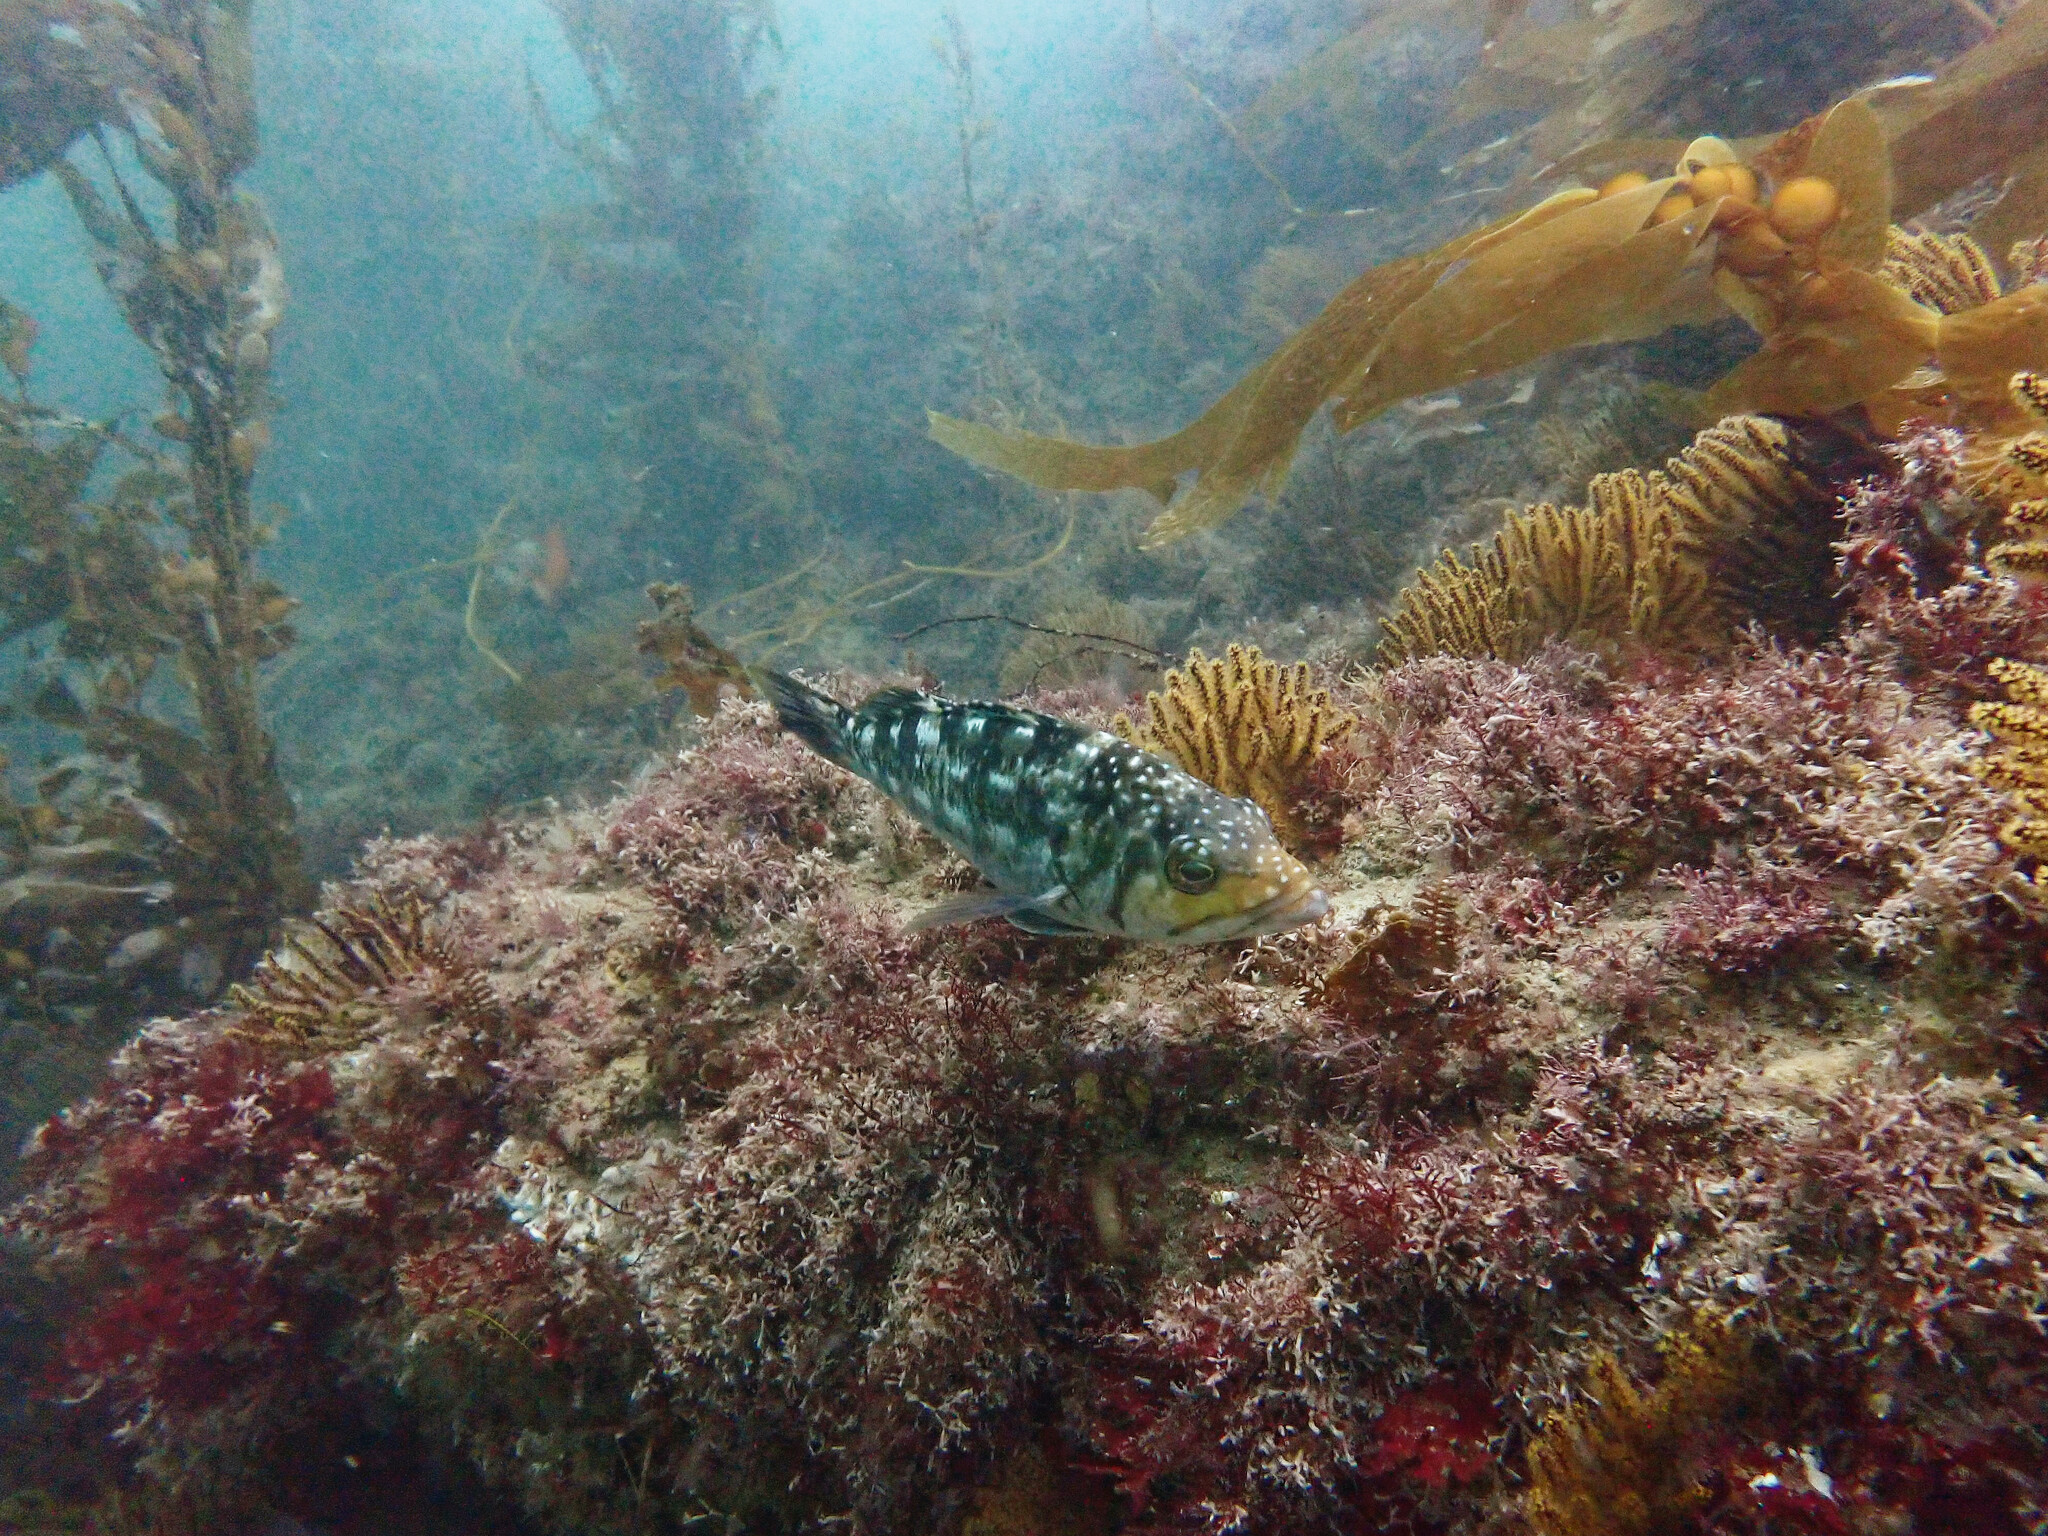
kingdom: Animalia
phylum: Chordata
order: Perciformes
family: Serranidae
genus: Paralabrax
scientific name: Paralabrax clathratus
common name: Kelp bass
